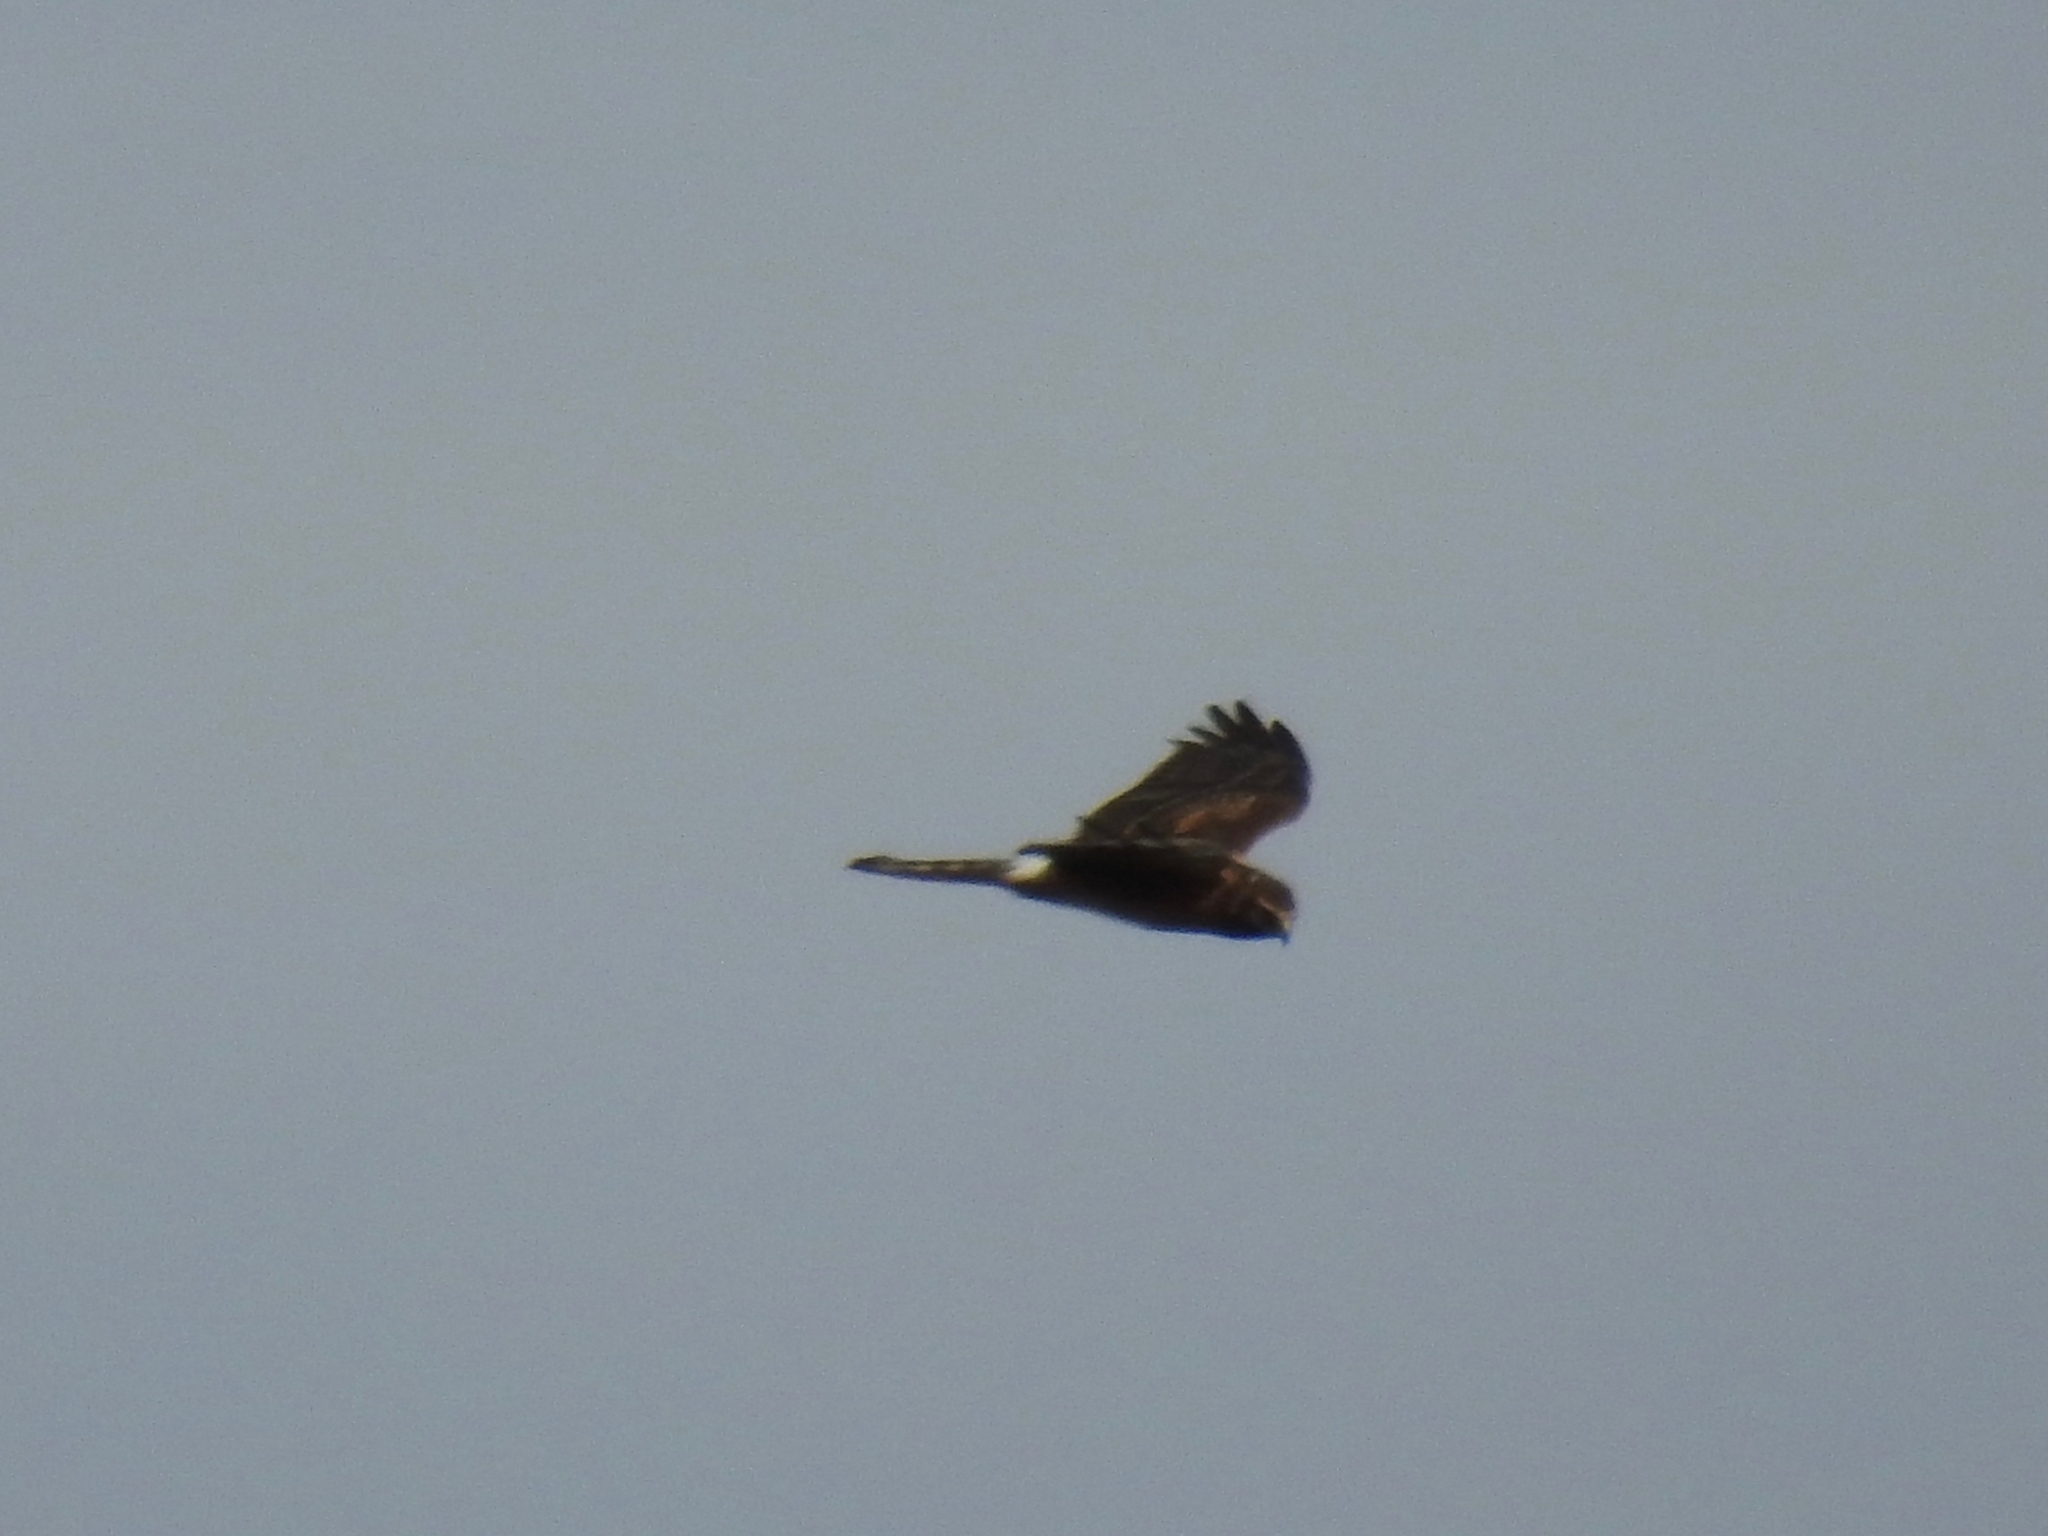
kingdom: Animalia
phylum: Chordata
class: Aves
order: Accipitriformes
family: Accipitridae
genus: Circus
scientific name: Circus cyaneus
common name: Hen harrier
